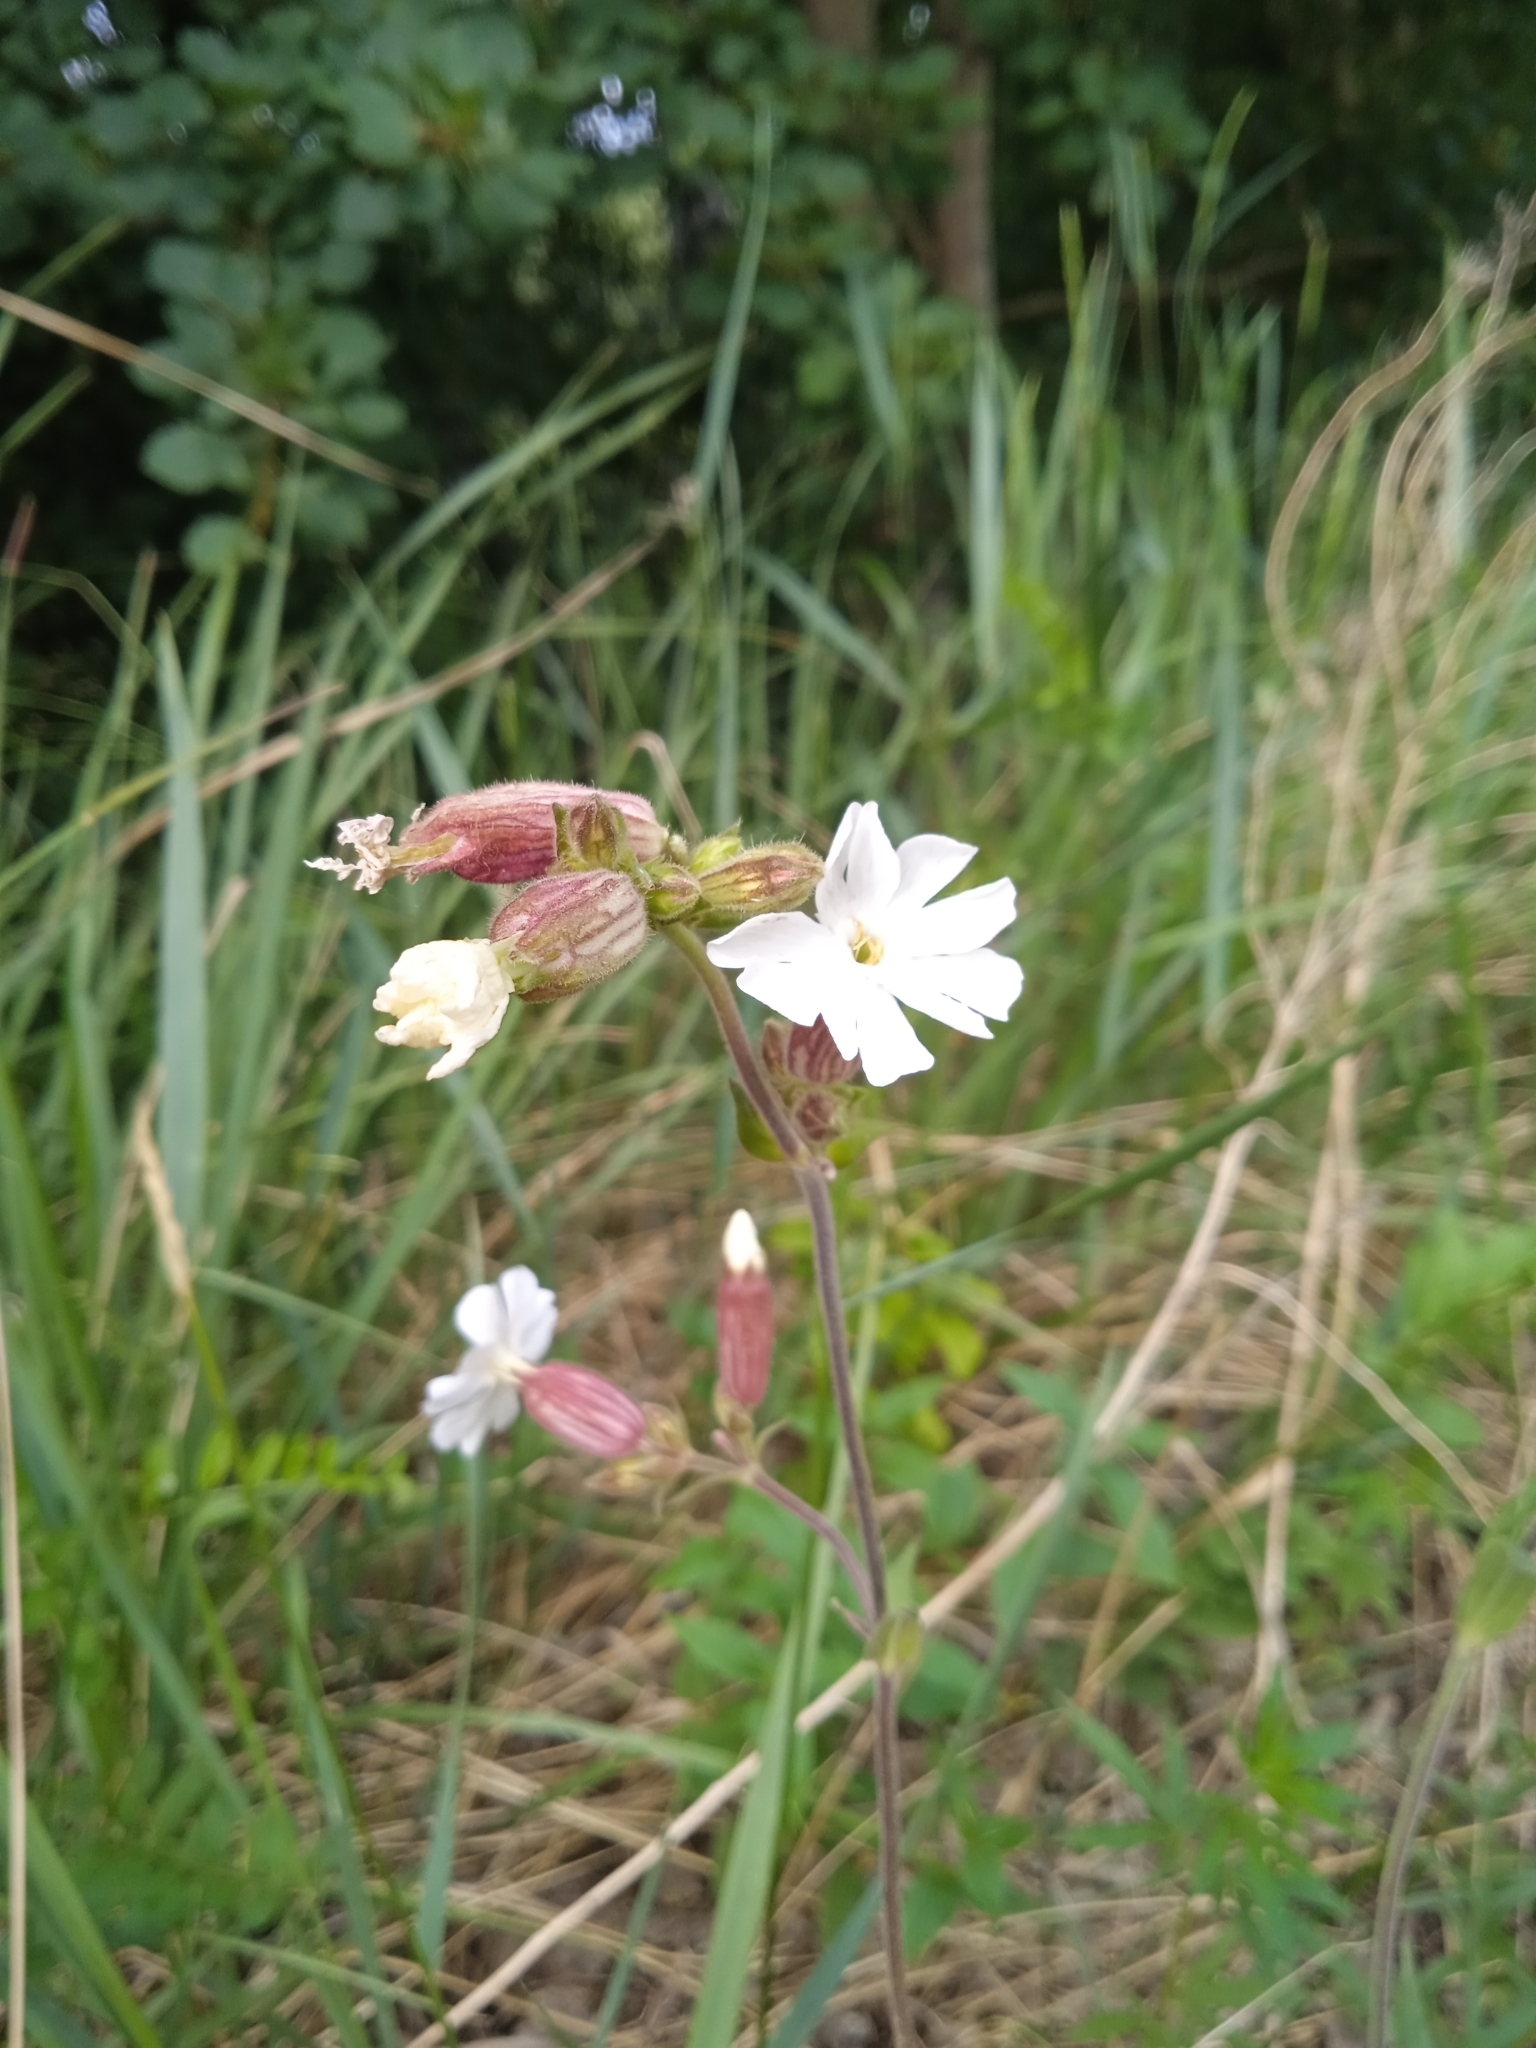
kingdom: Plantae
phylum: Tracheophyta
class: Magnoliopsida
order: Caryophyllales
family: Caryophyllaceae
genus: Silene
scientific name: Silene latifolia
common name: White campion
